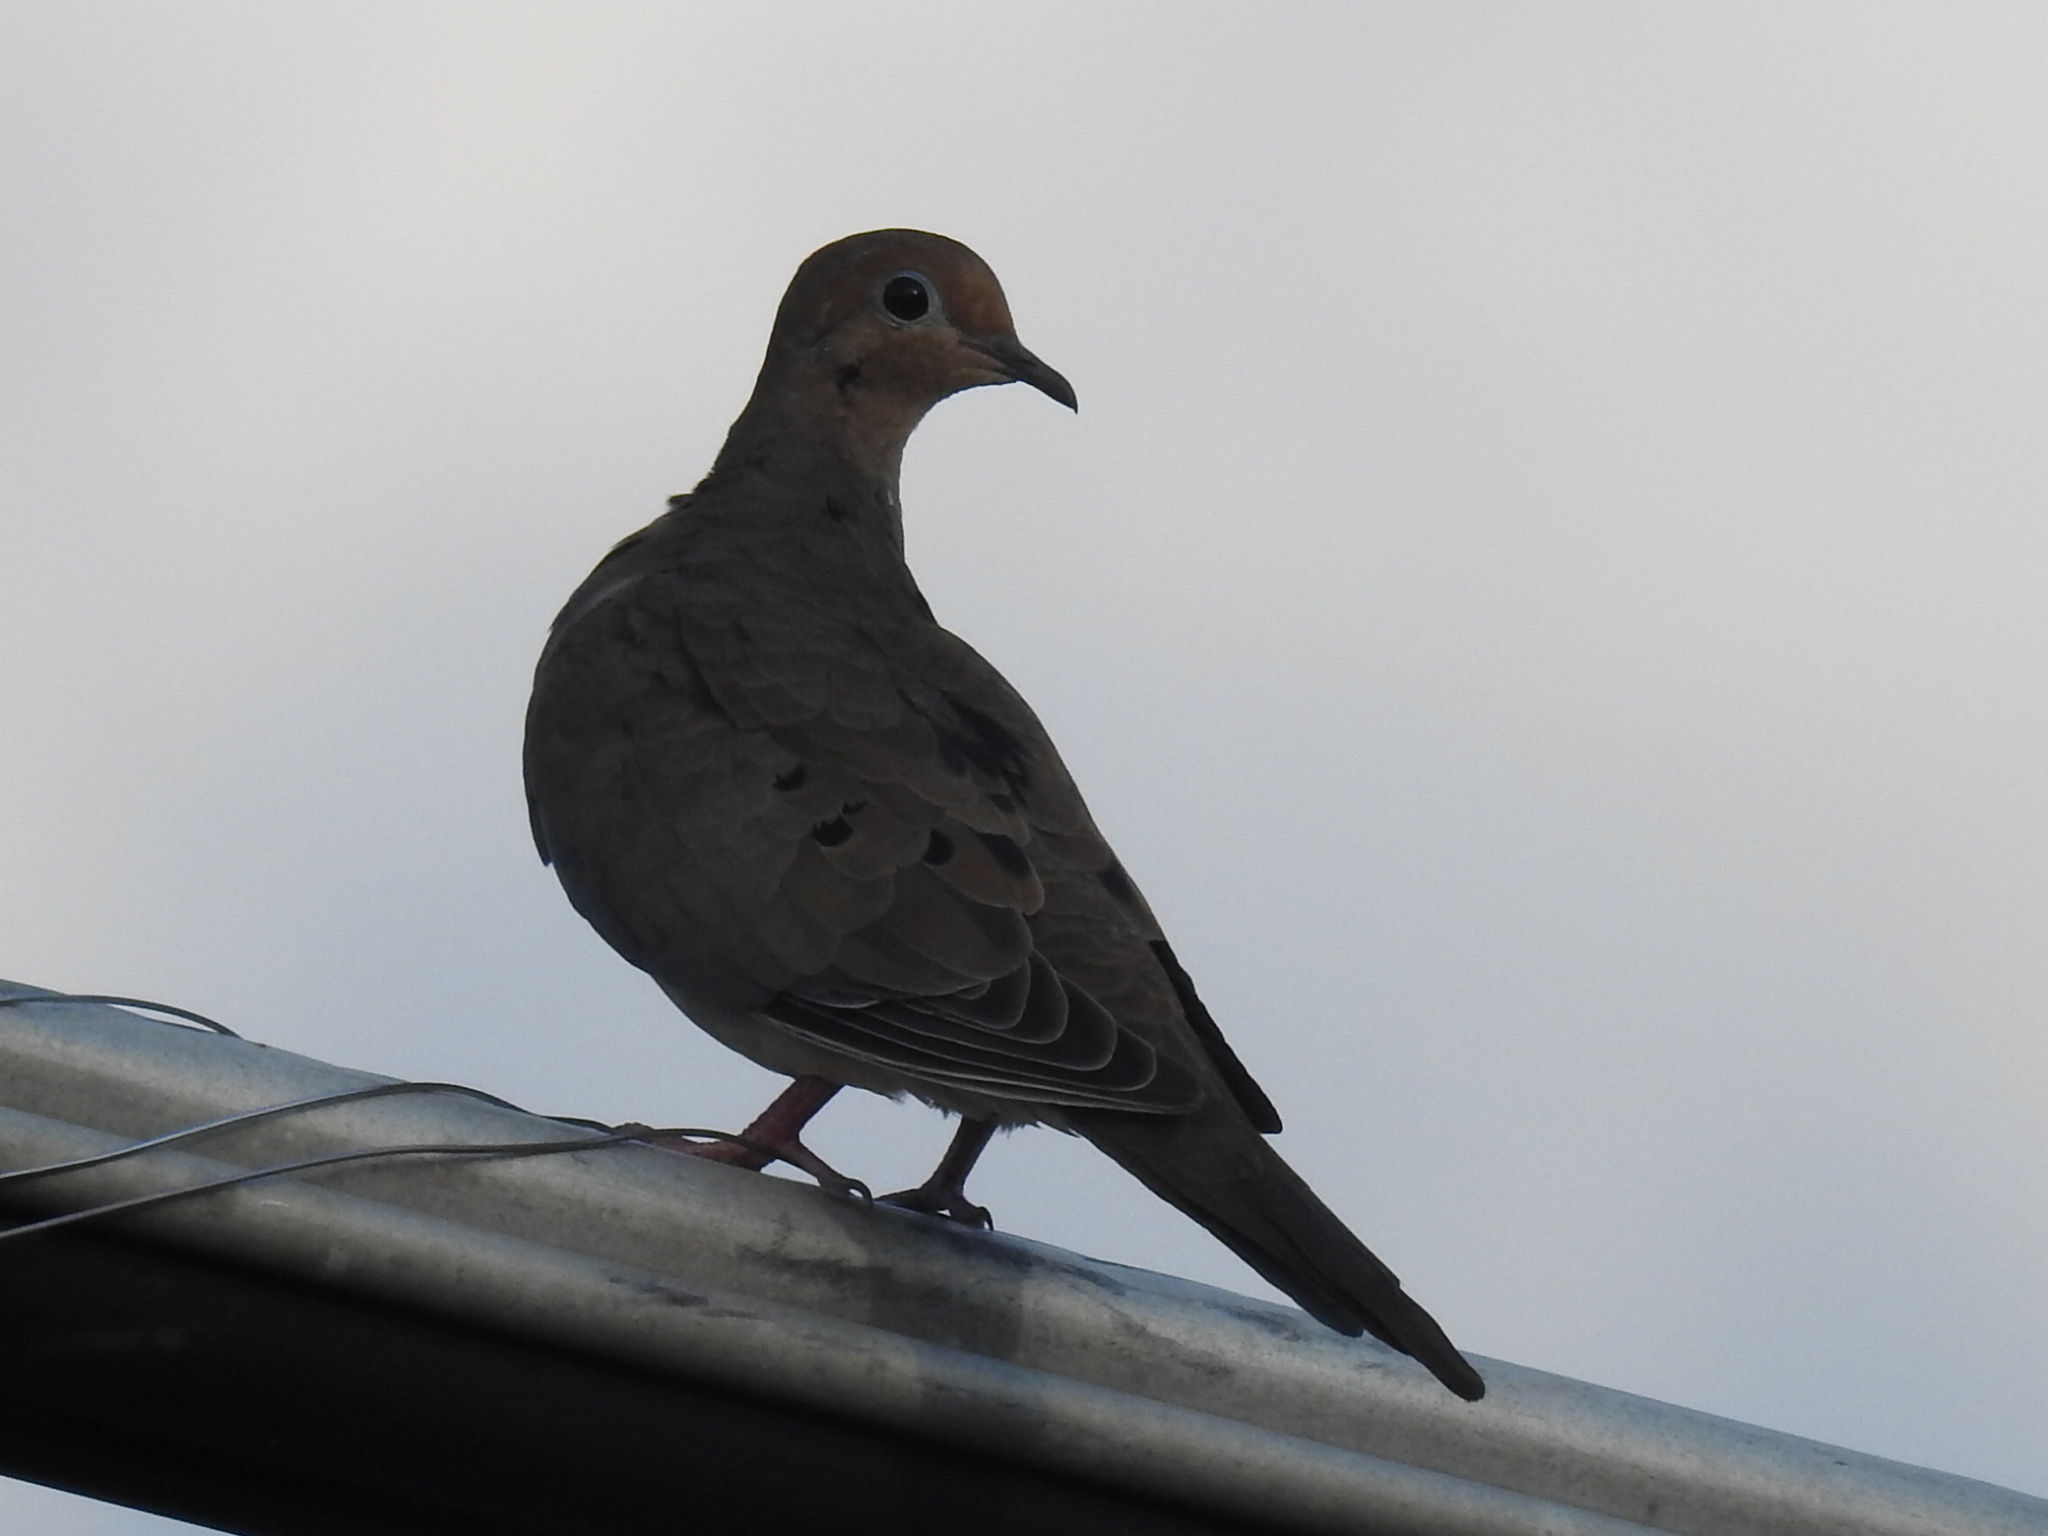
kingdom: Animalia
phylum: Chordata
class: Aves
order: Columbiformes
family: Columbidae
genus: Zenaida
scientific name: Zenaida macroura
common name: Mourning dove
